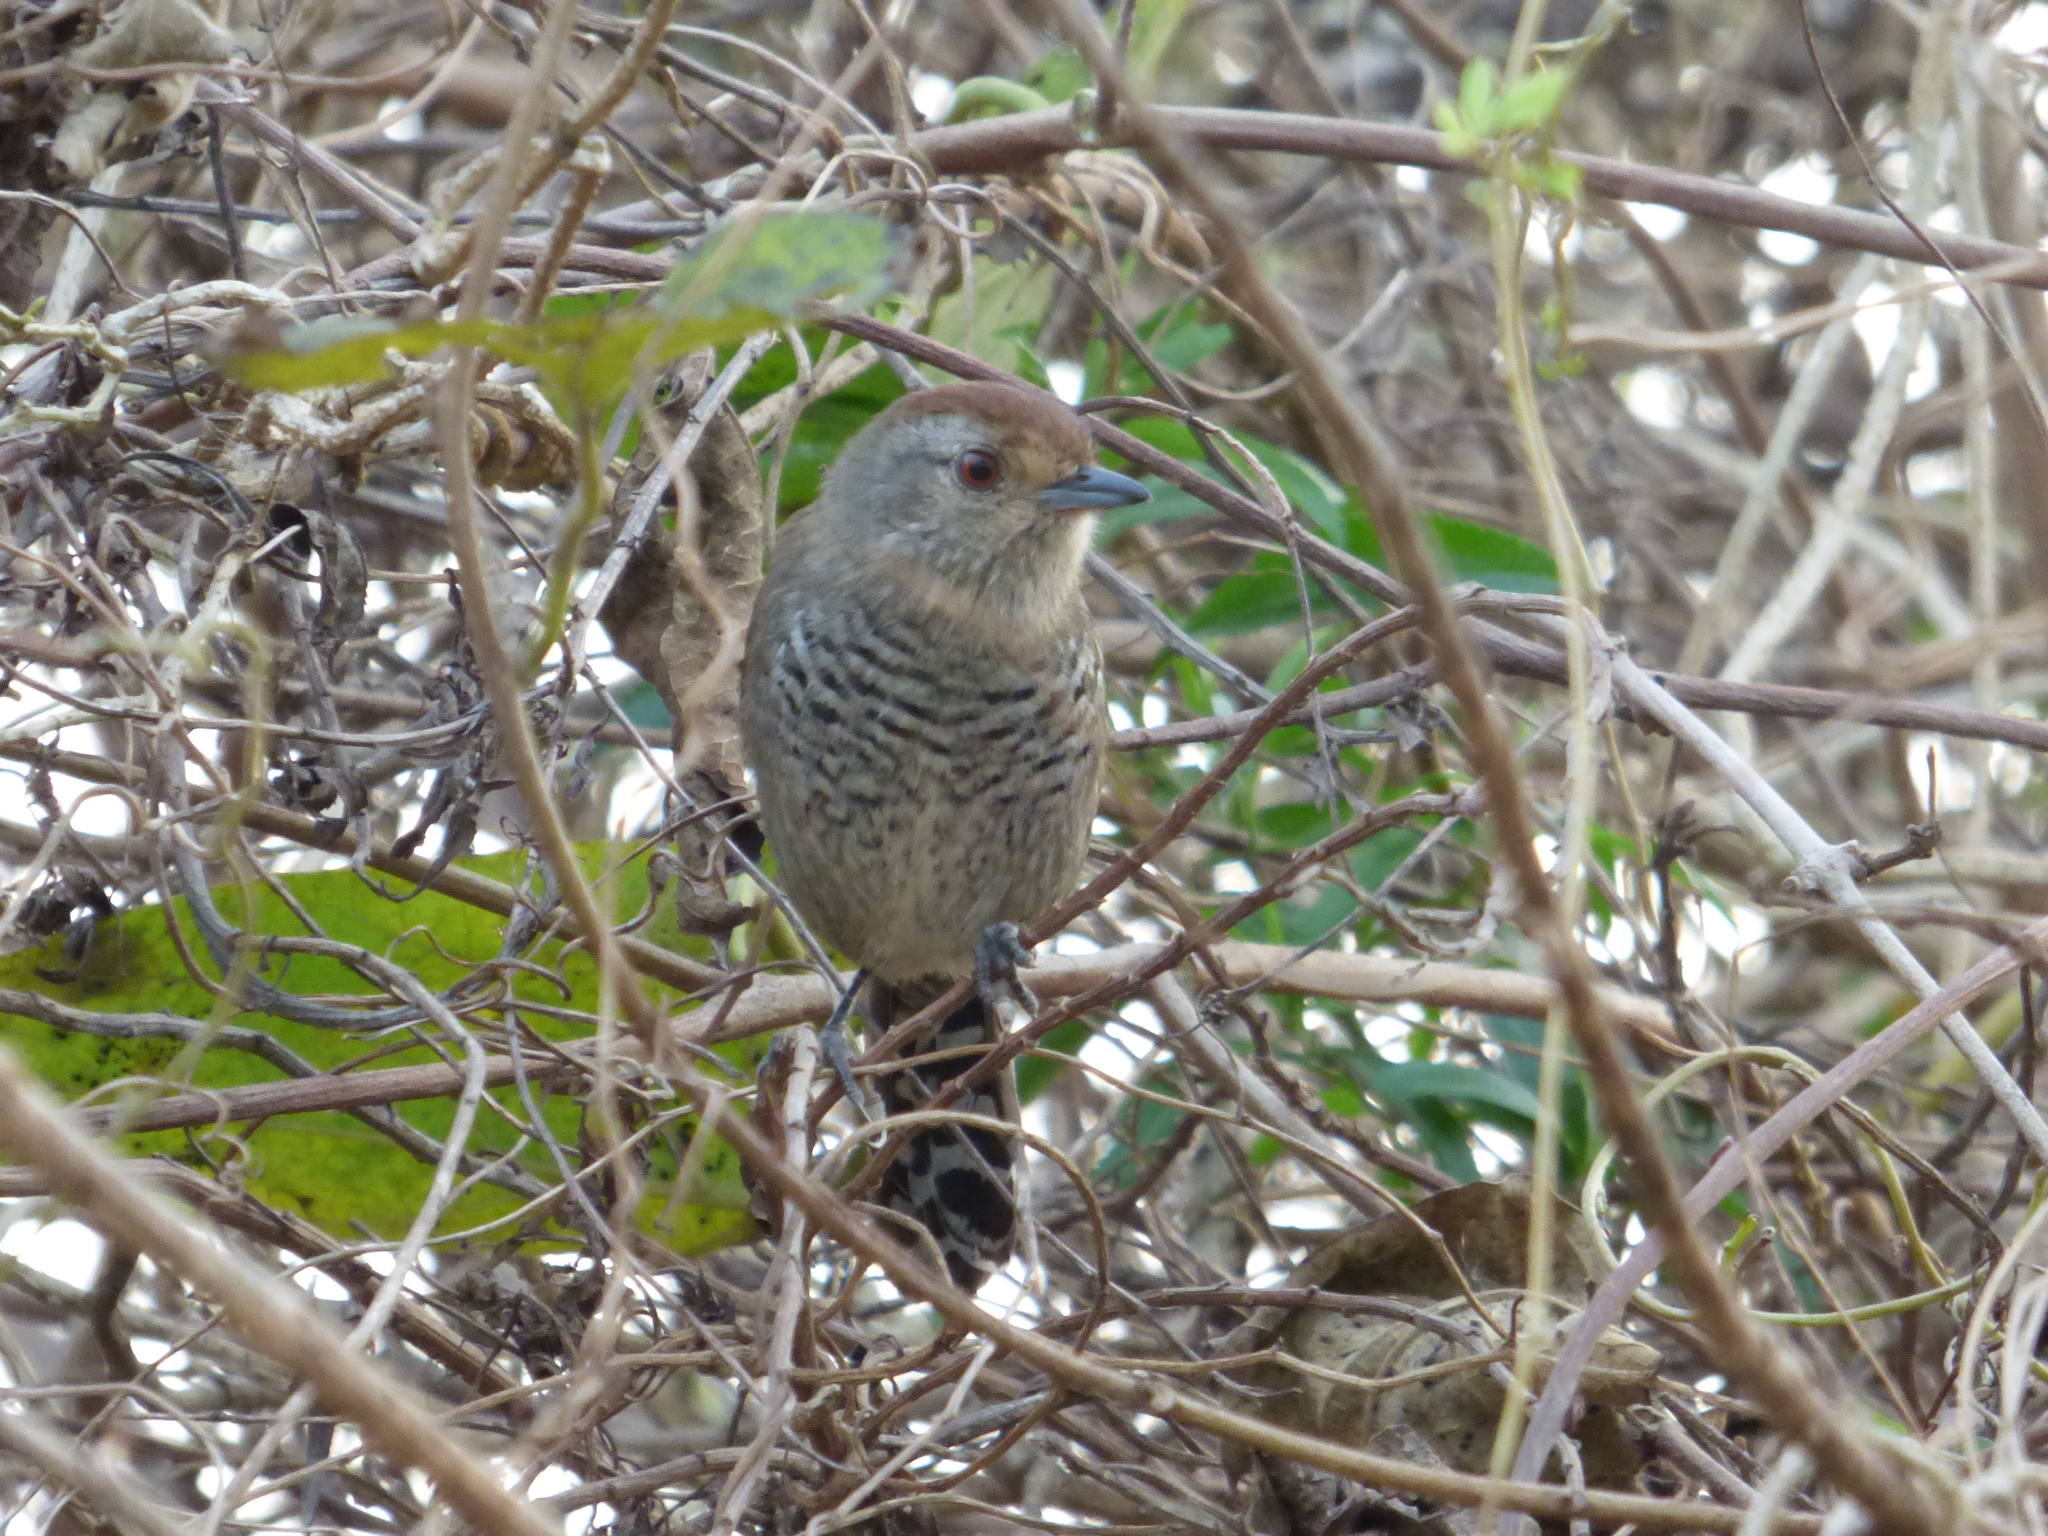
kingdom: Animalia
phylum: Chordata
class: Aves
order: Passeriformes
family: Thamnophilidae
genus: Thamnophilus
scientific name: Thamnophilus ruficapillus
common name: Rufous-capped antshrike
